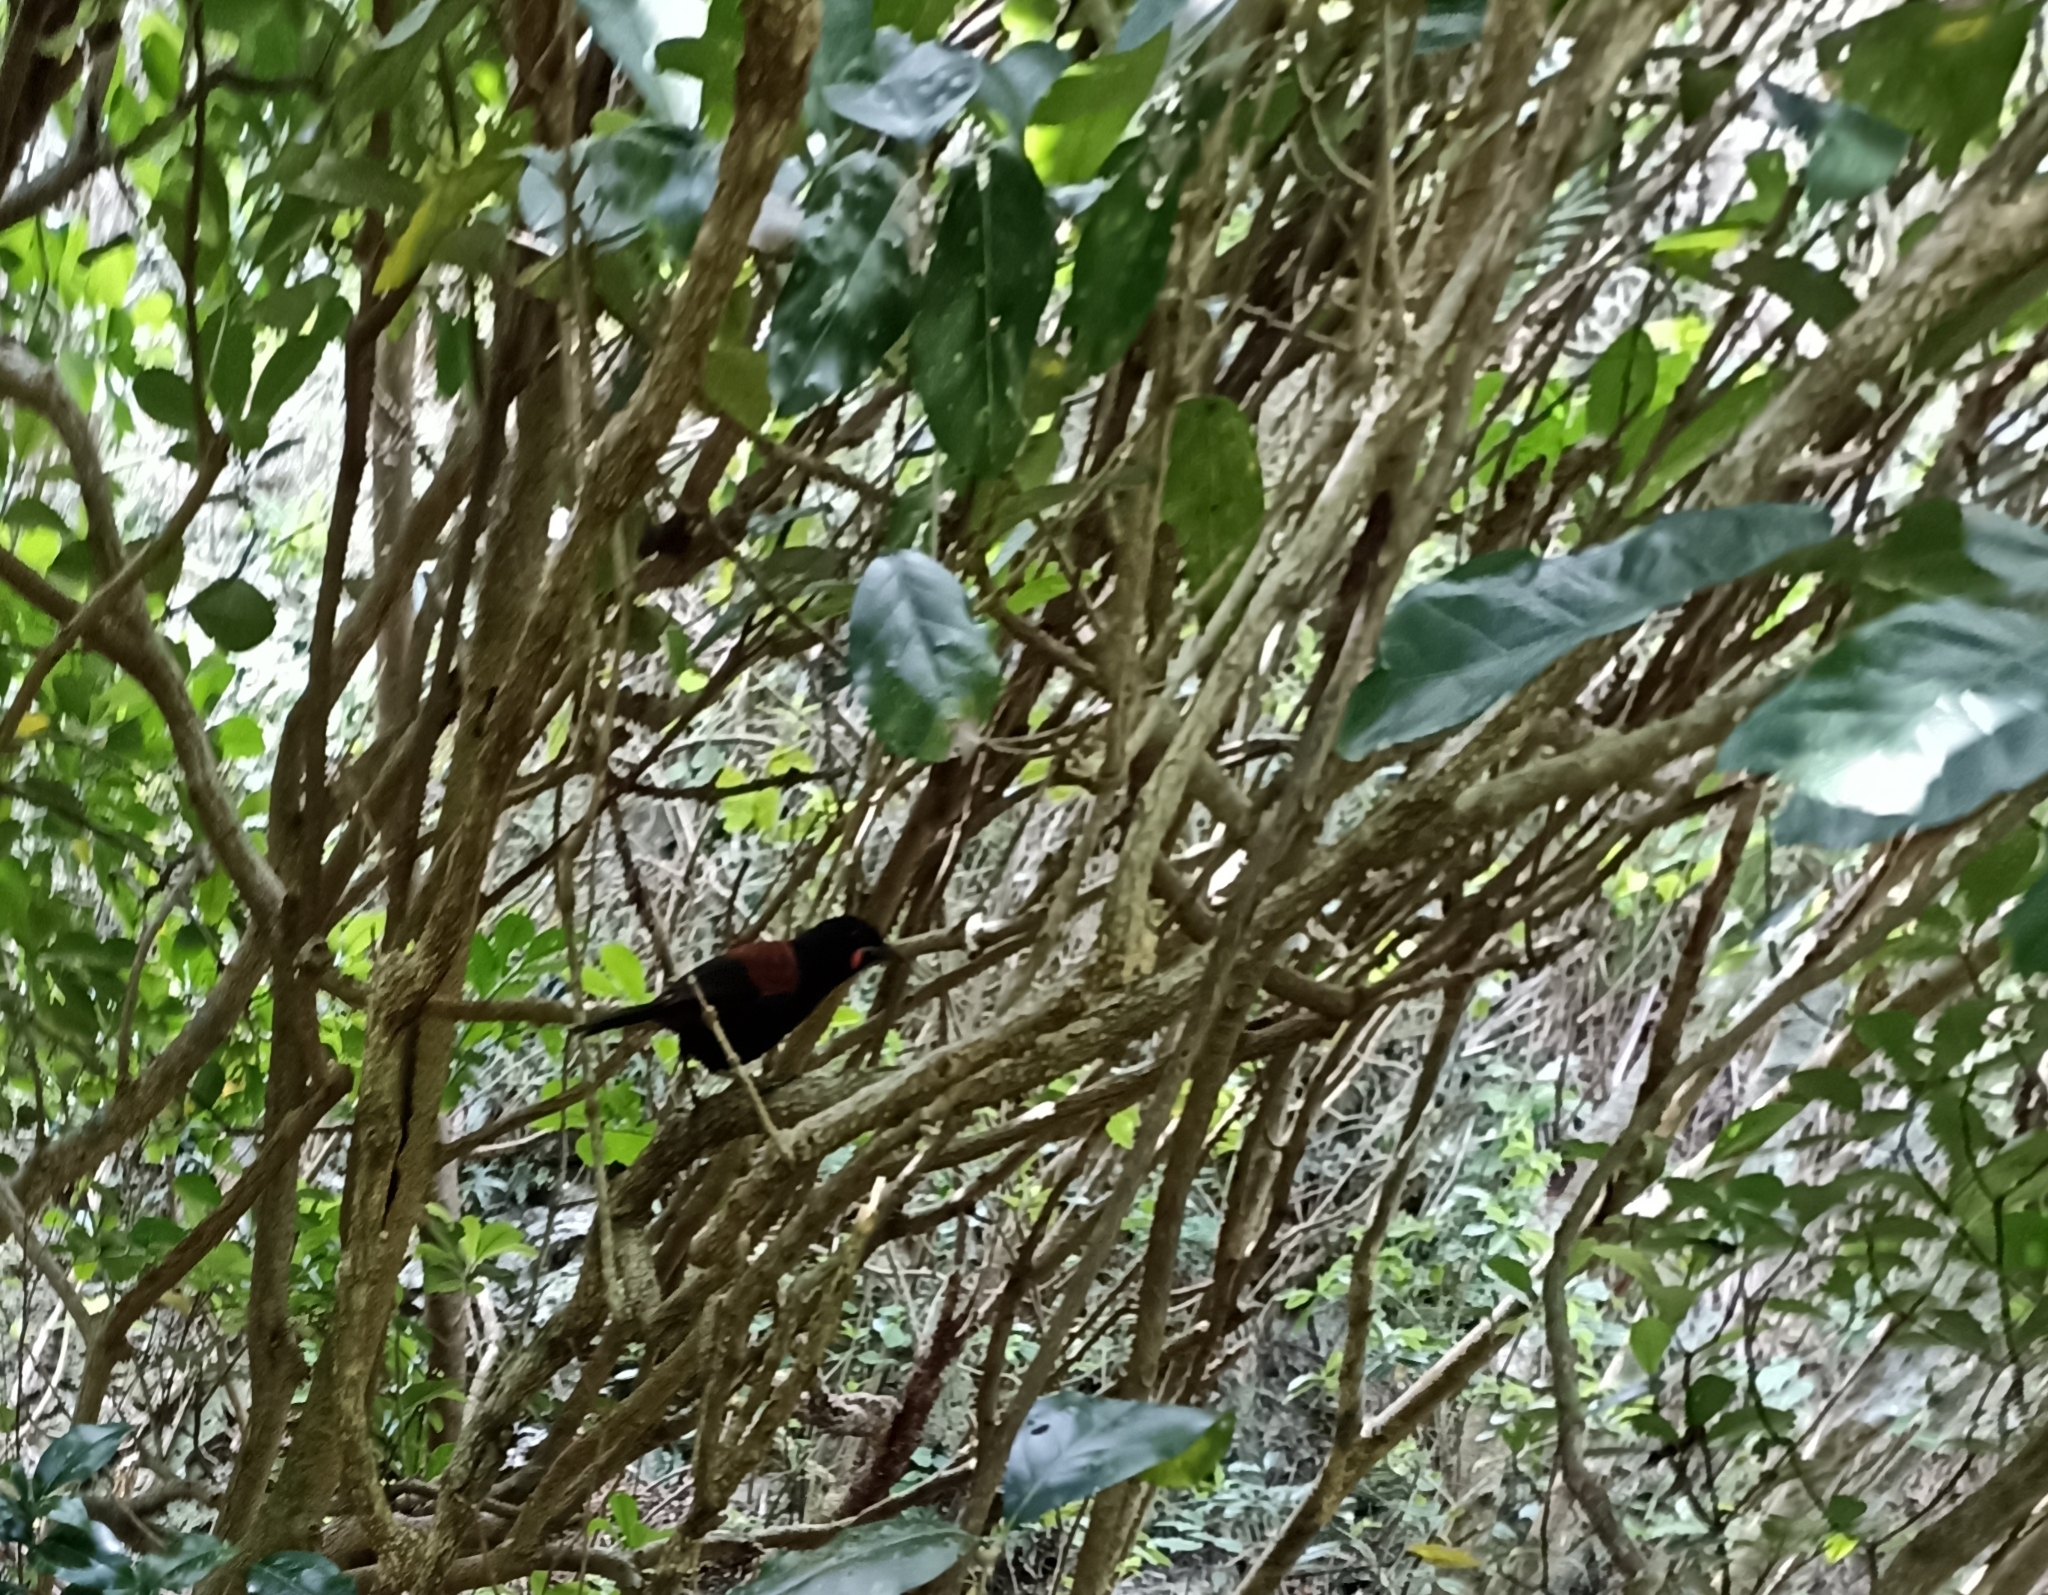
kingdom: Animalia
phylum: Chordata
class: Aves
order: Passeriformes
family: Callaeatidae
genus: Philesturnus
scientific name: Philesturnus carunculatus
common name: South island saddleback
